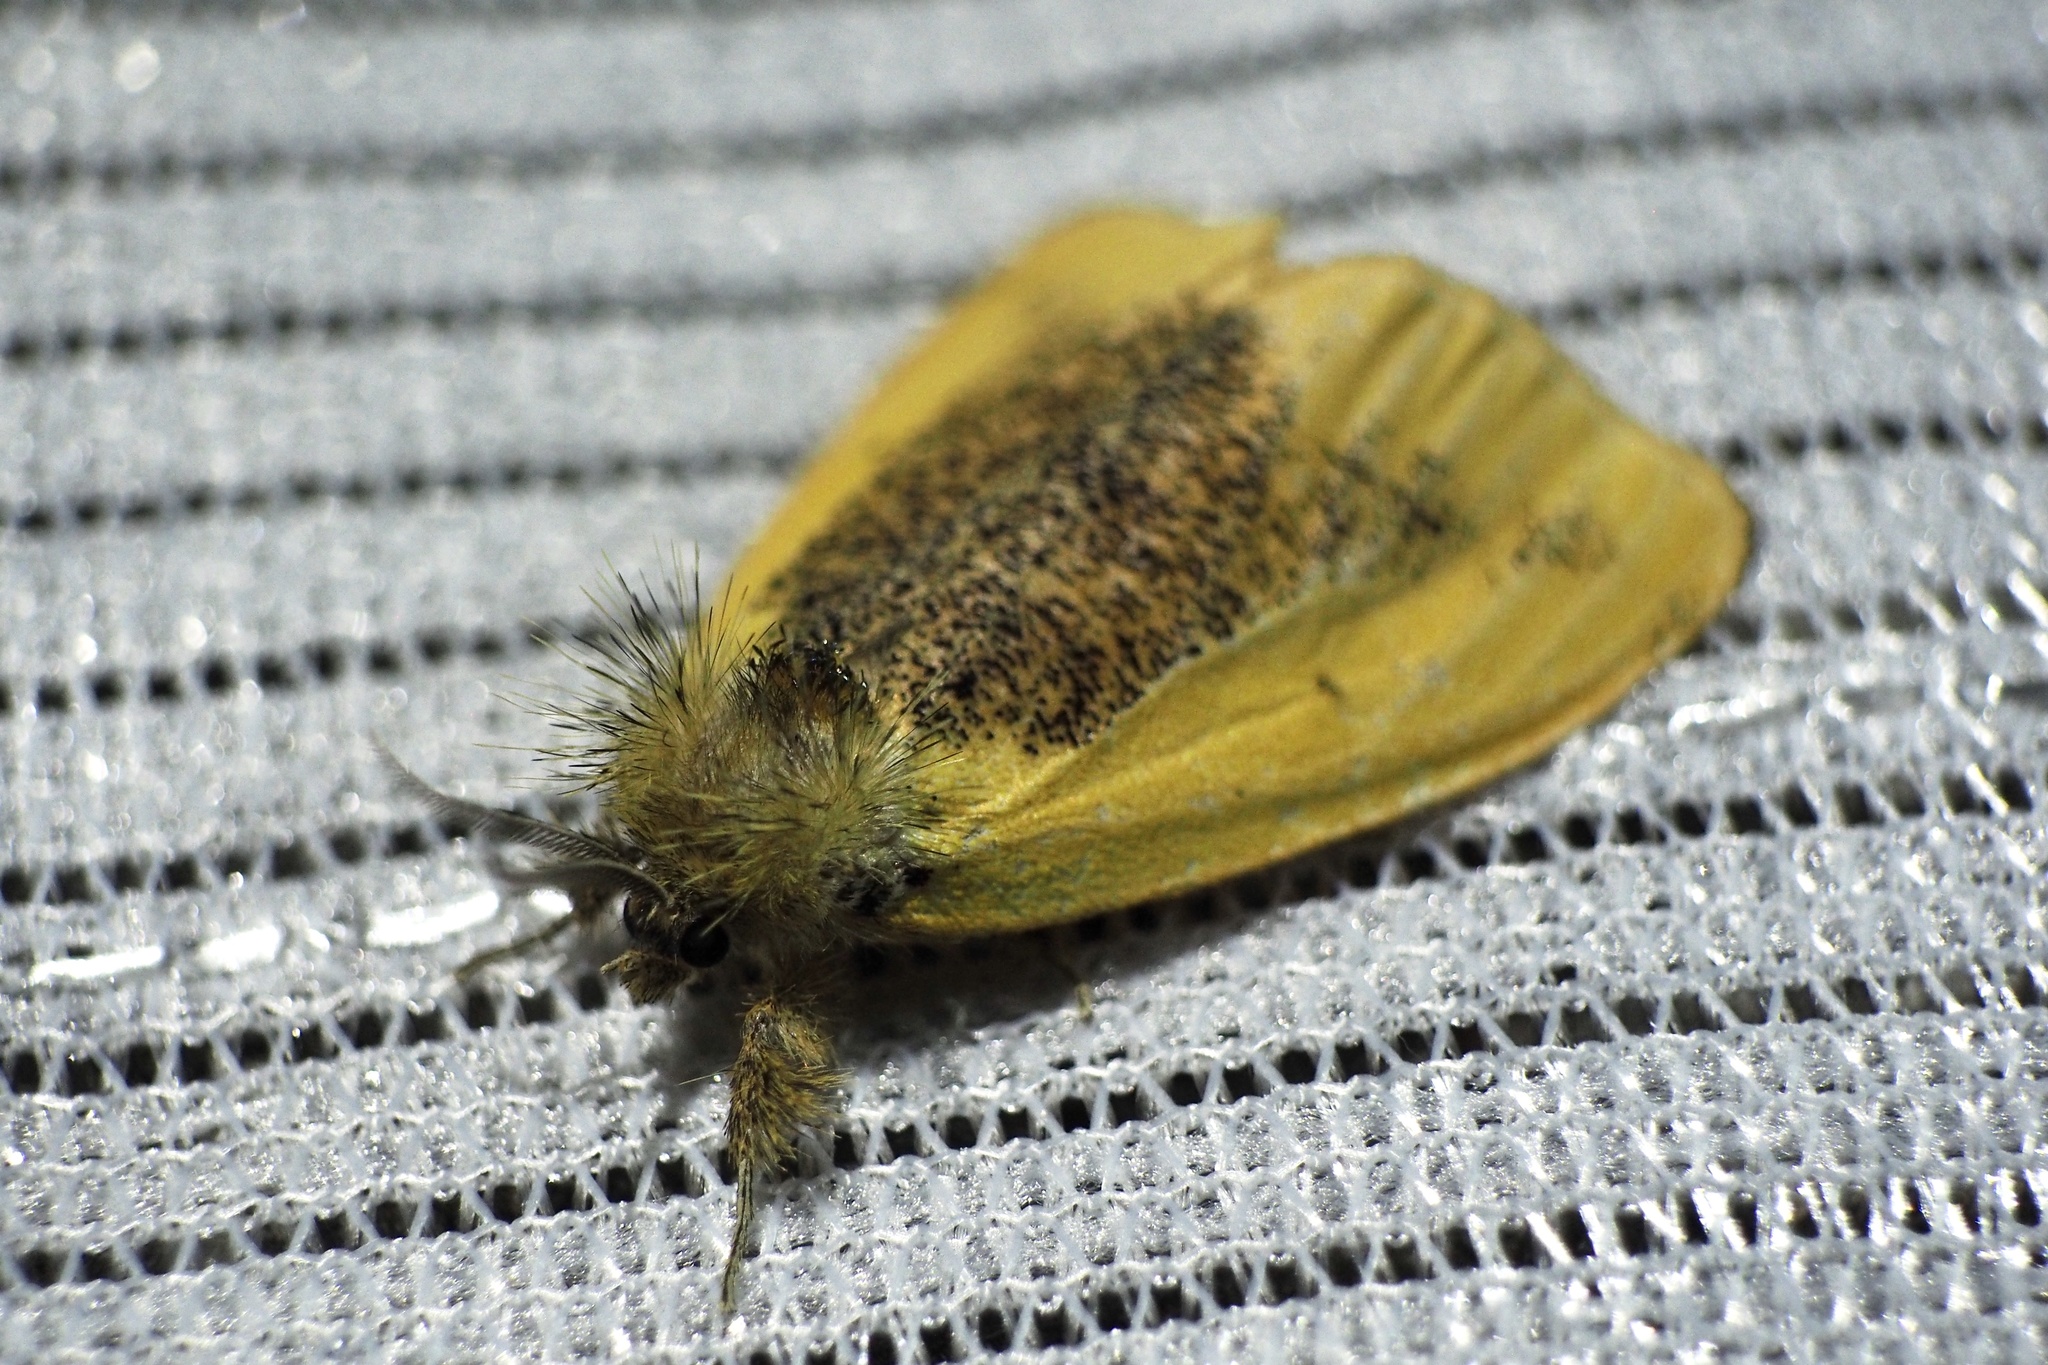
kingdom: Animalia
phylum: Arthropoda
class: Insecta
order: Lepidoptera
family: Erebidae
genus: Kuromondokuga
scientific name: Kuromondokuga niphonis
